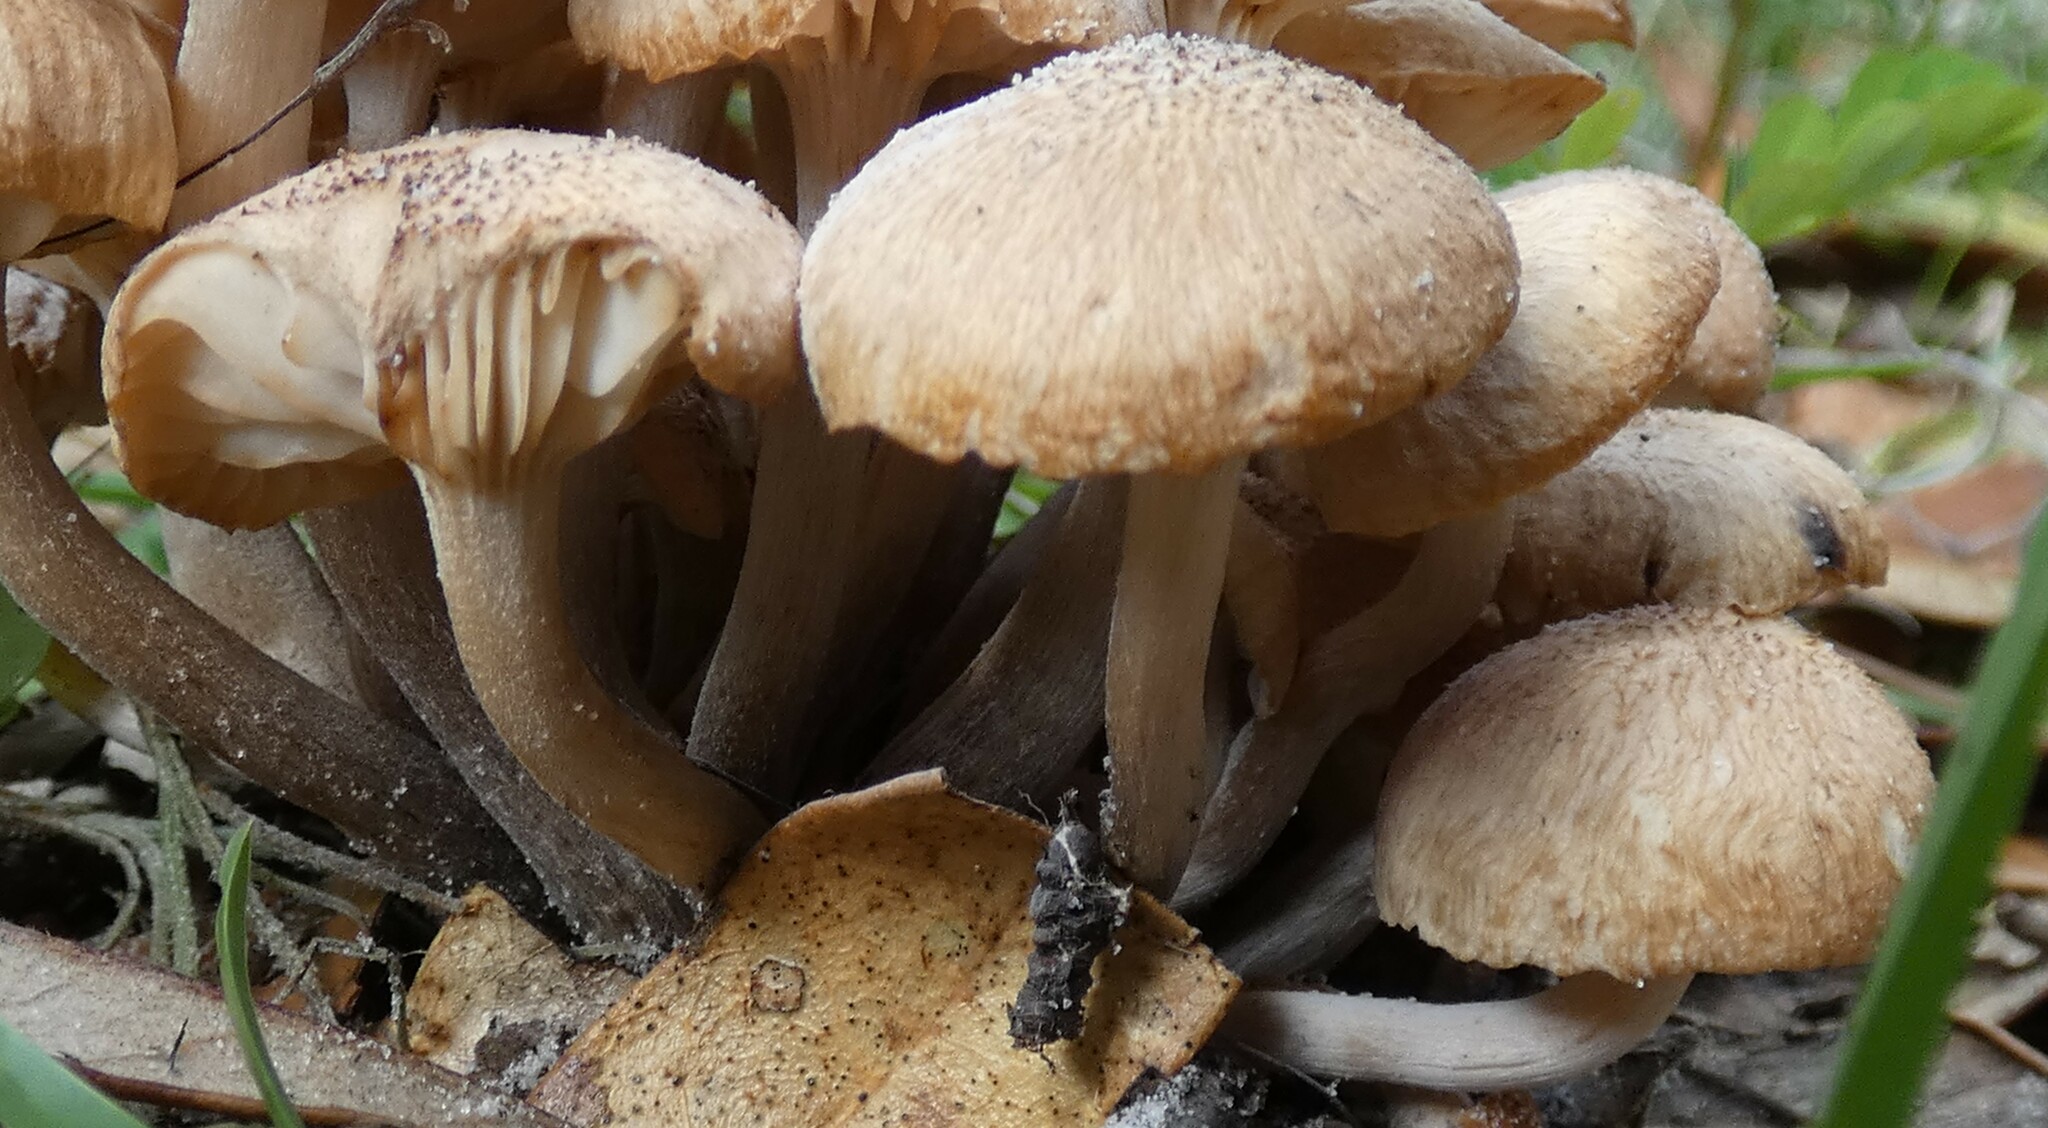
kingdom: Fungi
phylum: Basidiomycota
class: Agaricomycetes
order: Agaricales
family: Physalacriaceae
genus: Desarmillaria
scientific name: Desarmillaria caespitosa
